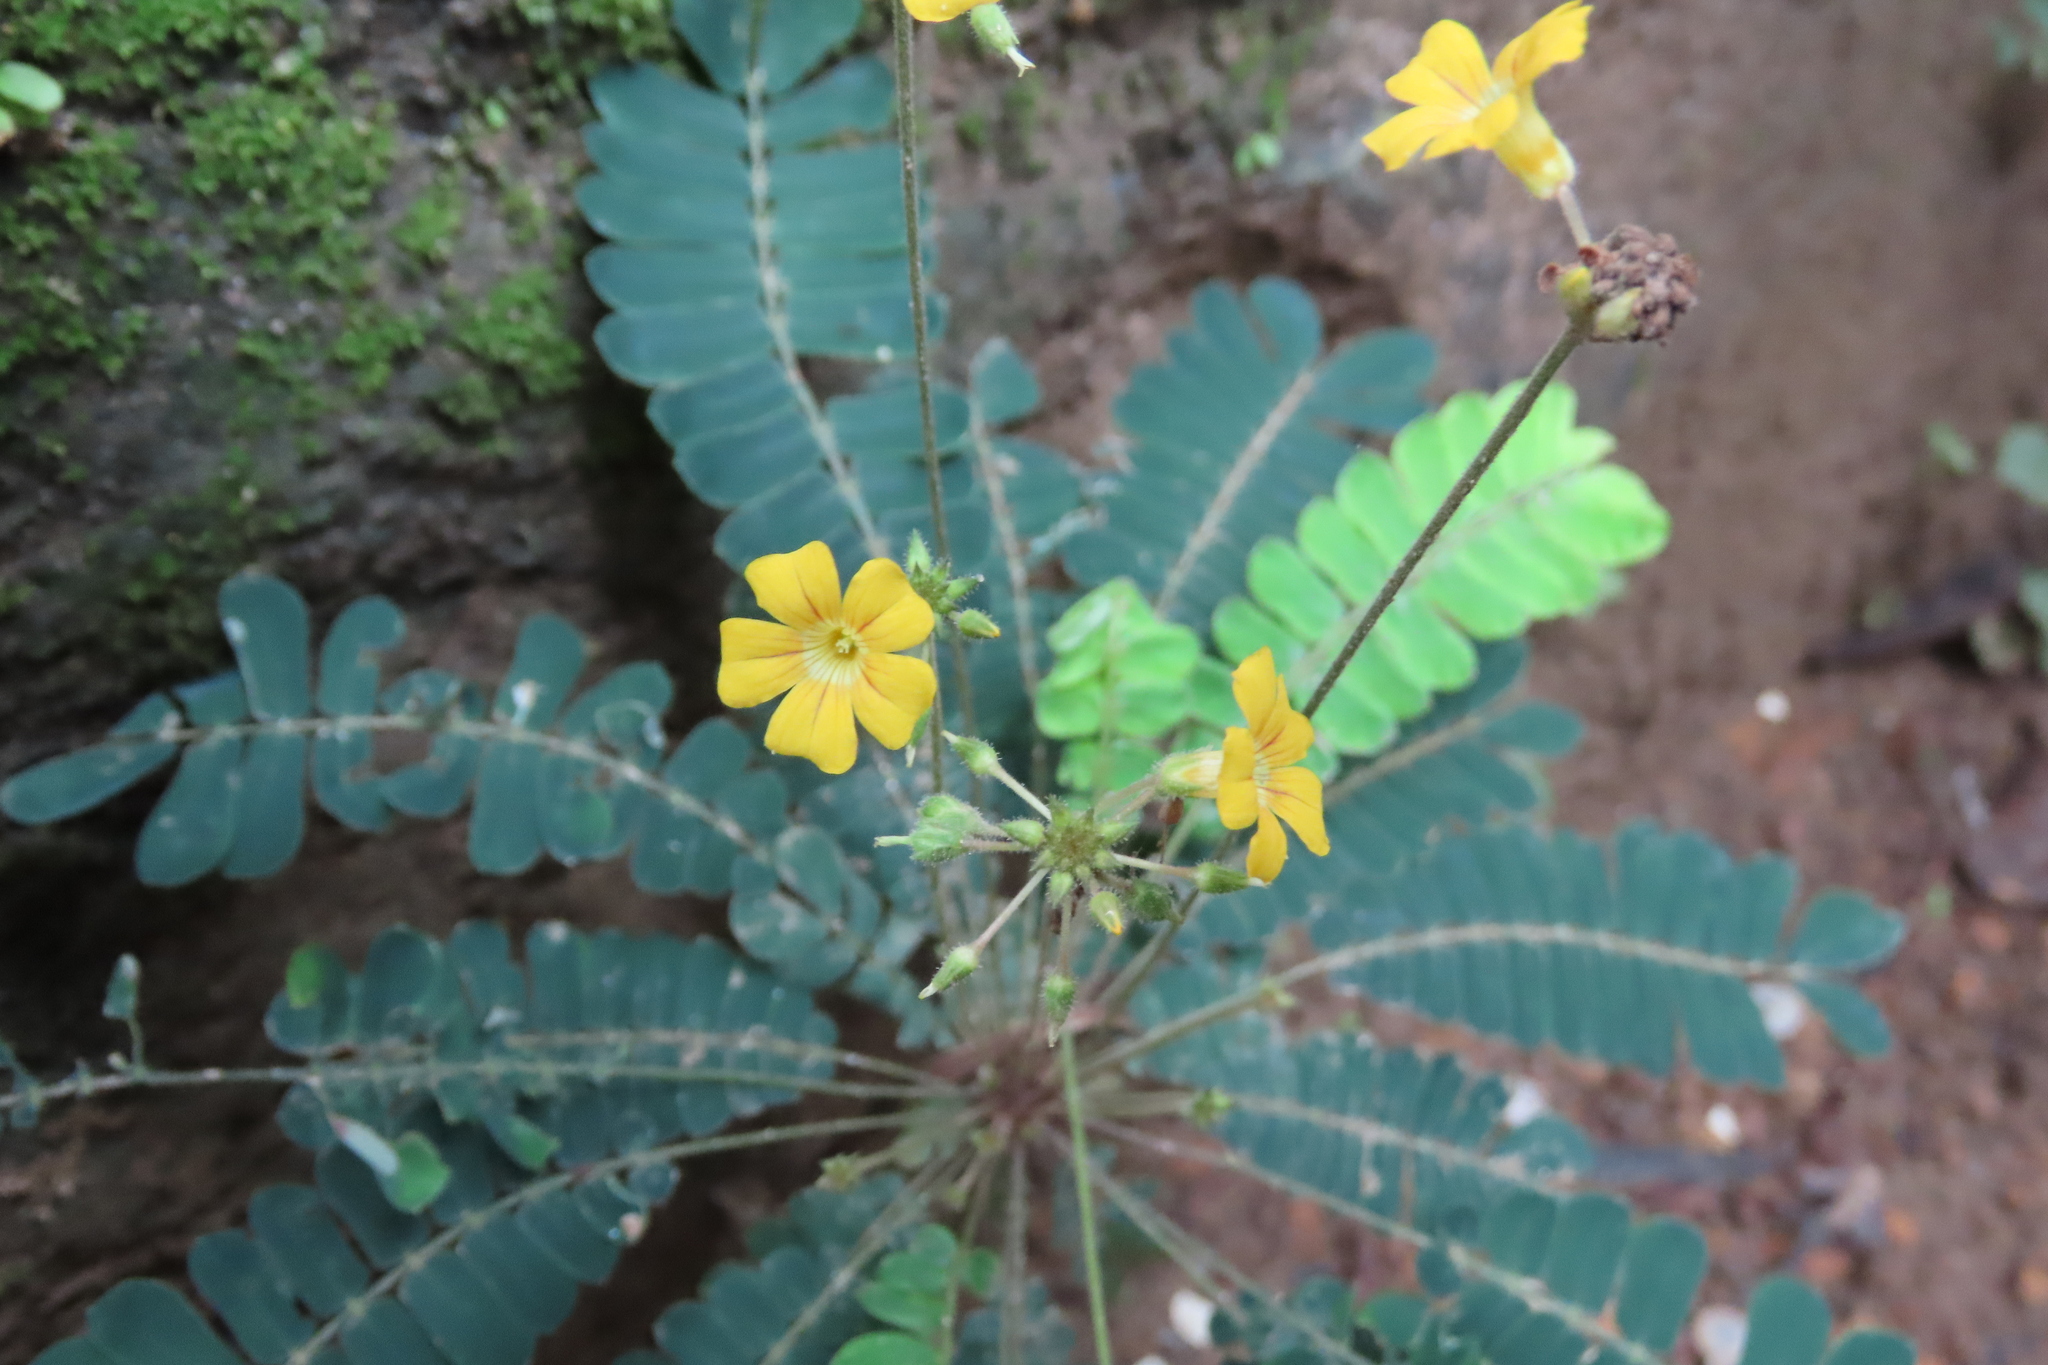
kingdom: Plantae
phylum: Tracheophyta
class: Magnoliopsida
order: Oxalidales
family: Oxalidaceae
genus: Biophytum
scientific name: Biophytum sensitivum
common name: Lifeplant
